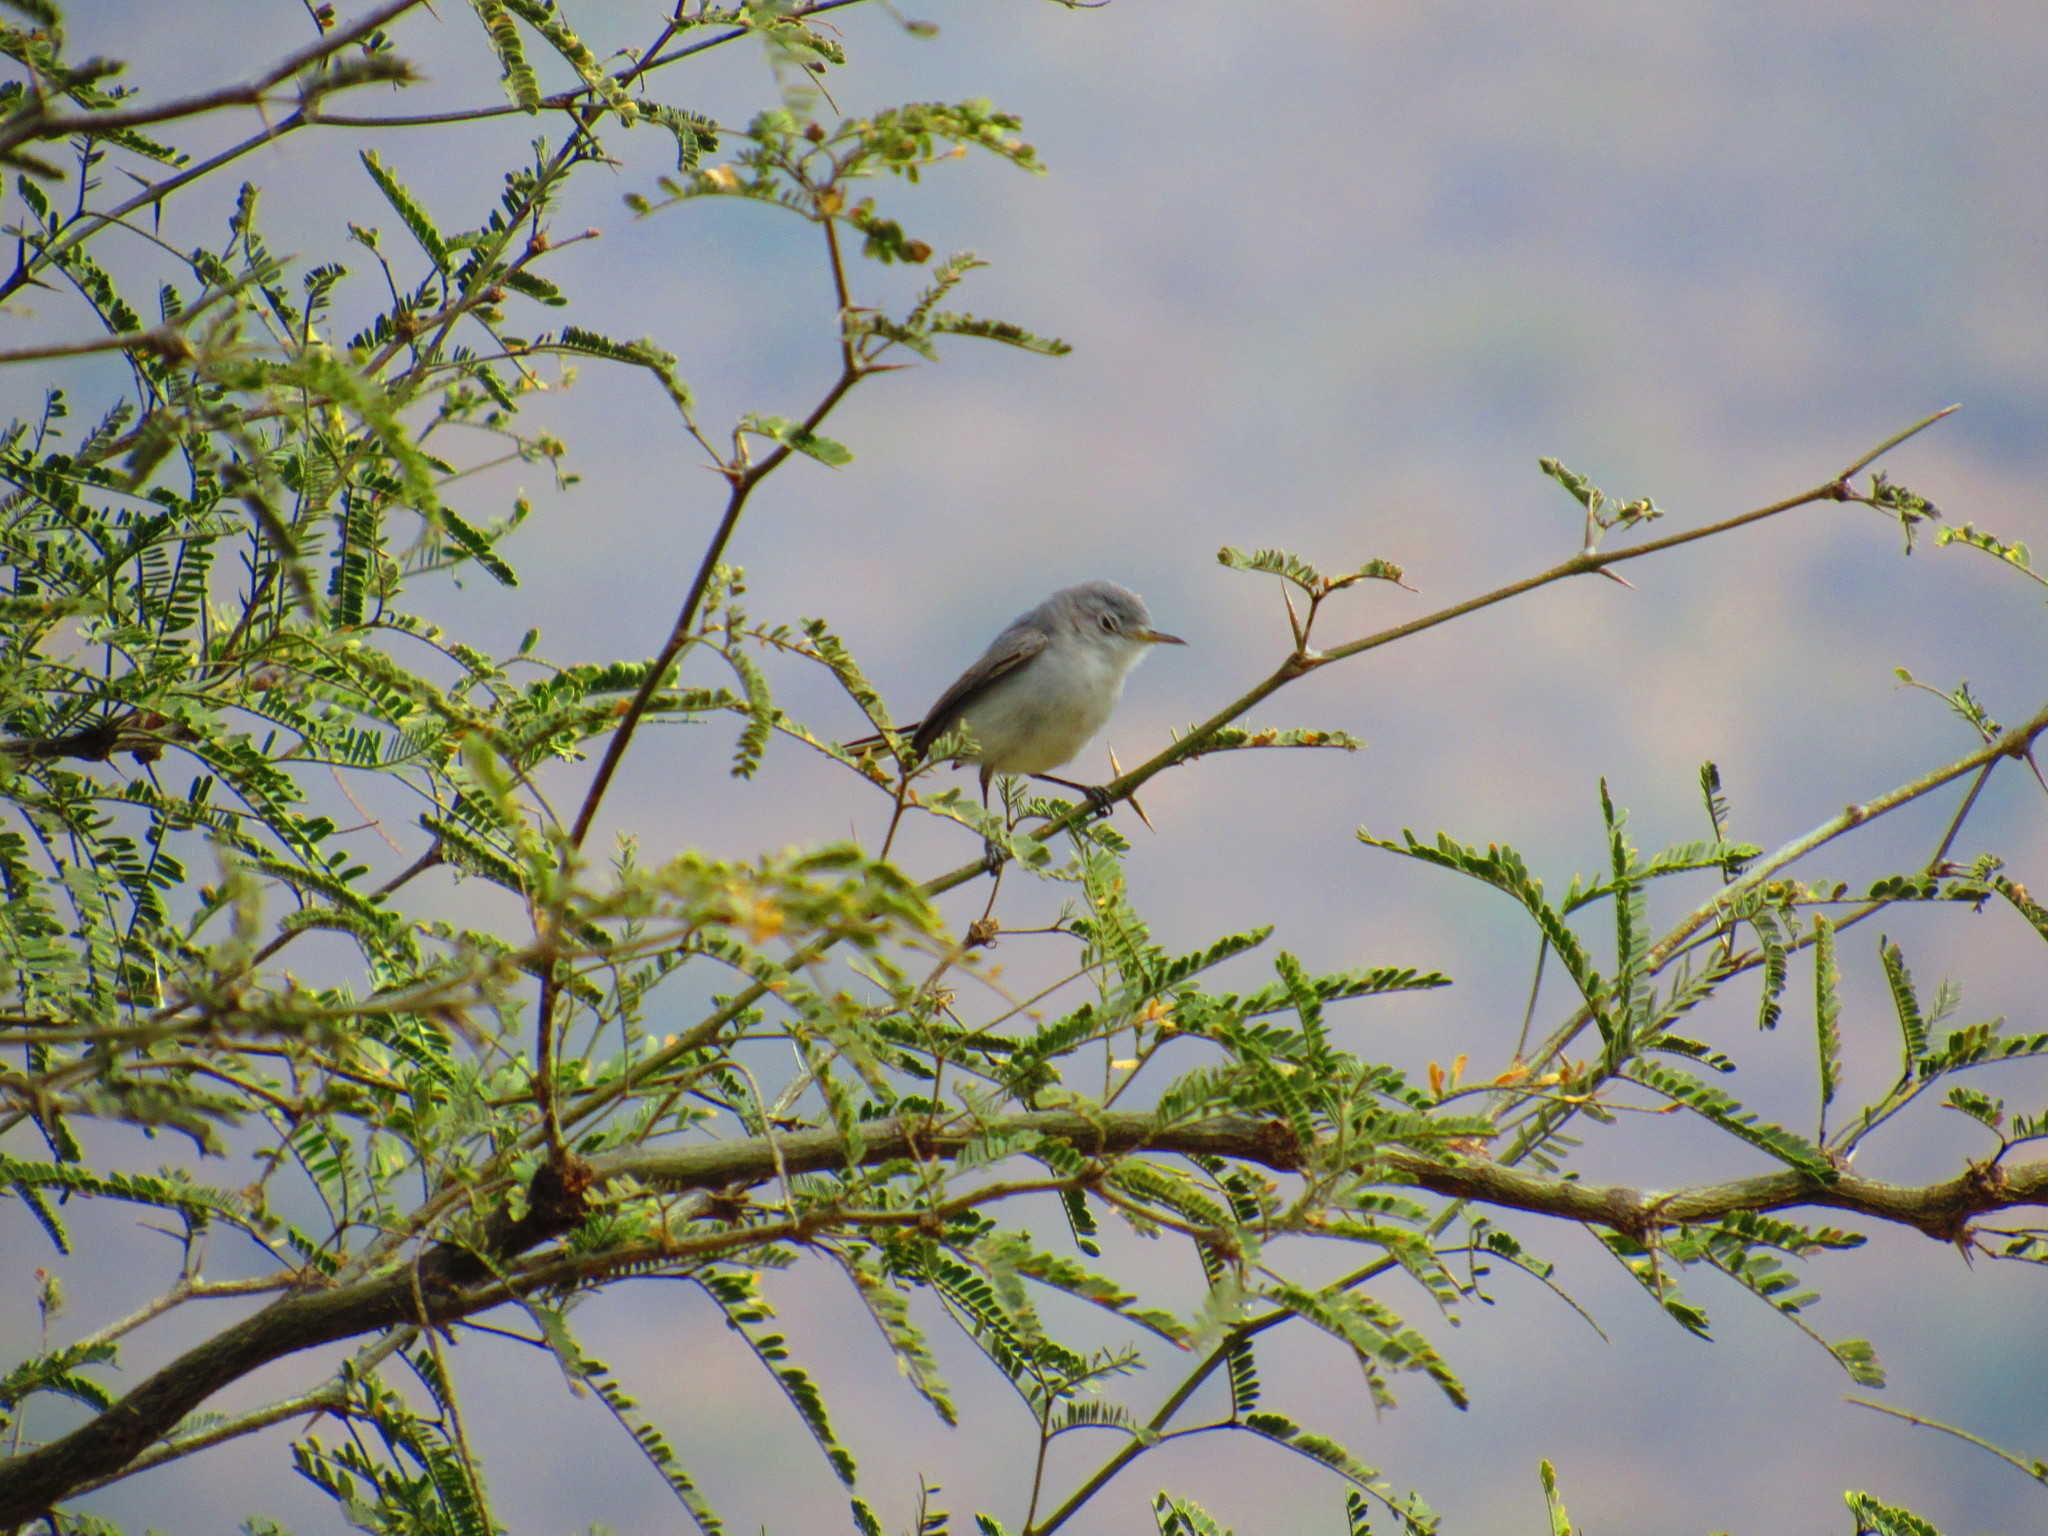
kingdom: Animalia
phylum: Chordata
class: Aves
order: Passeriformes
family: Polioptilidae
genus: Polioptila
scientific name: Polioptila caerulea
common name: Blue-gray gnatcatcher
